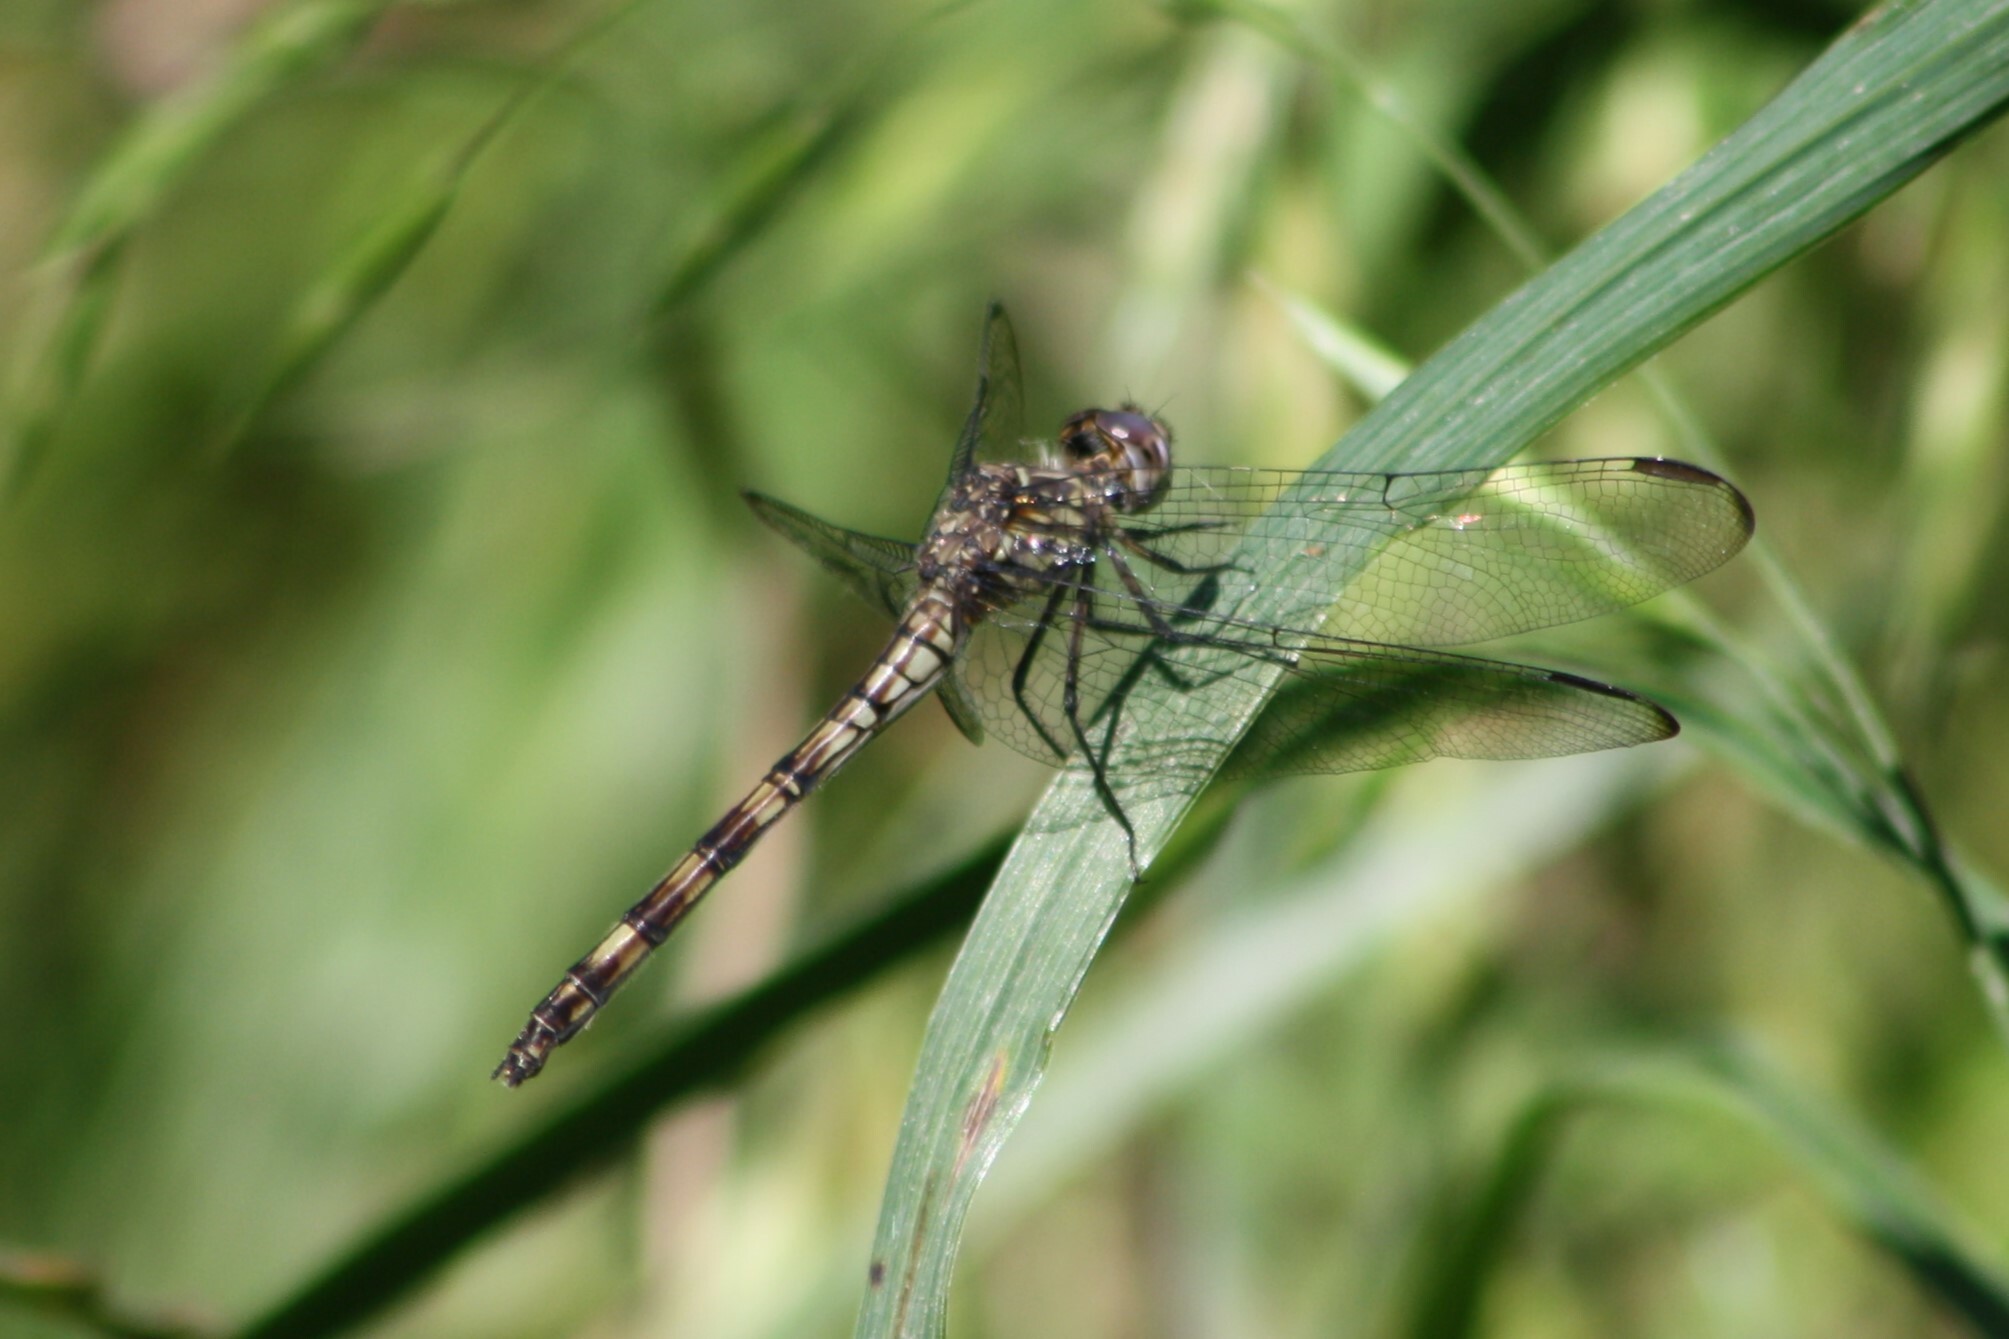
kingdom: Animalia
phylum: Arthropoda
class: Insecta
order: Odonata
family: Libellulidae
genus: Dythemis
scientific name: Dythemis nigrescens
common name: Black setwing
